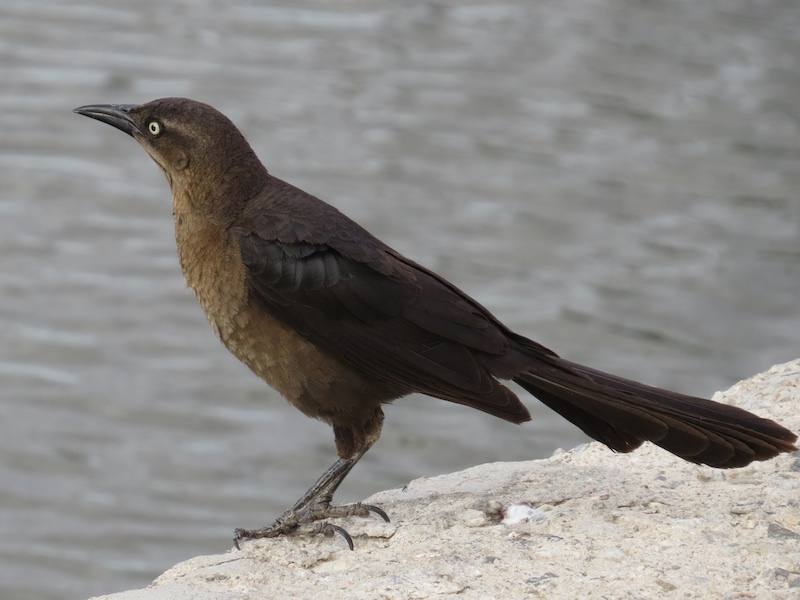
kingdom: Animalia
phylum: Chordata
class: Aves
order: Passeriformes
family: Icteridae
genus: Quiscalus
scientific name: Quiscalus mexicanus
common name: Great-tailed grackle
